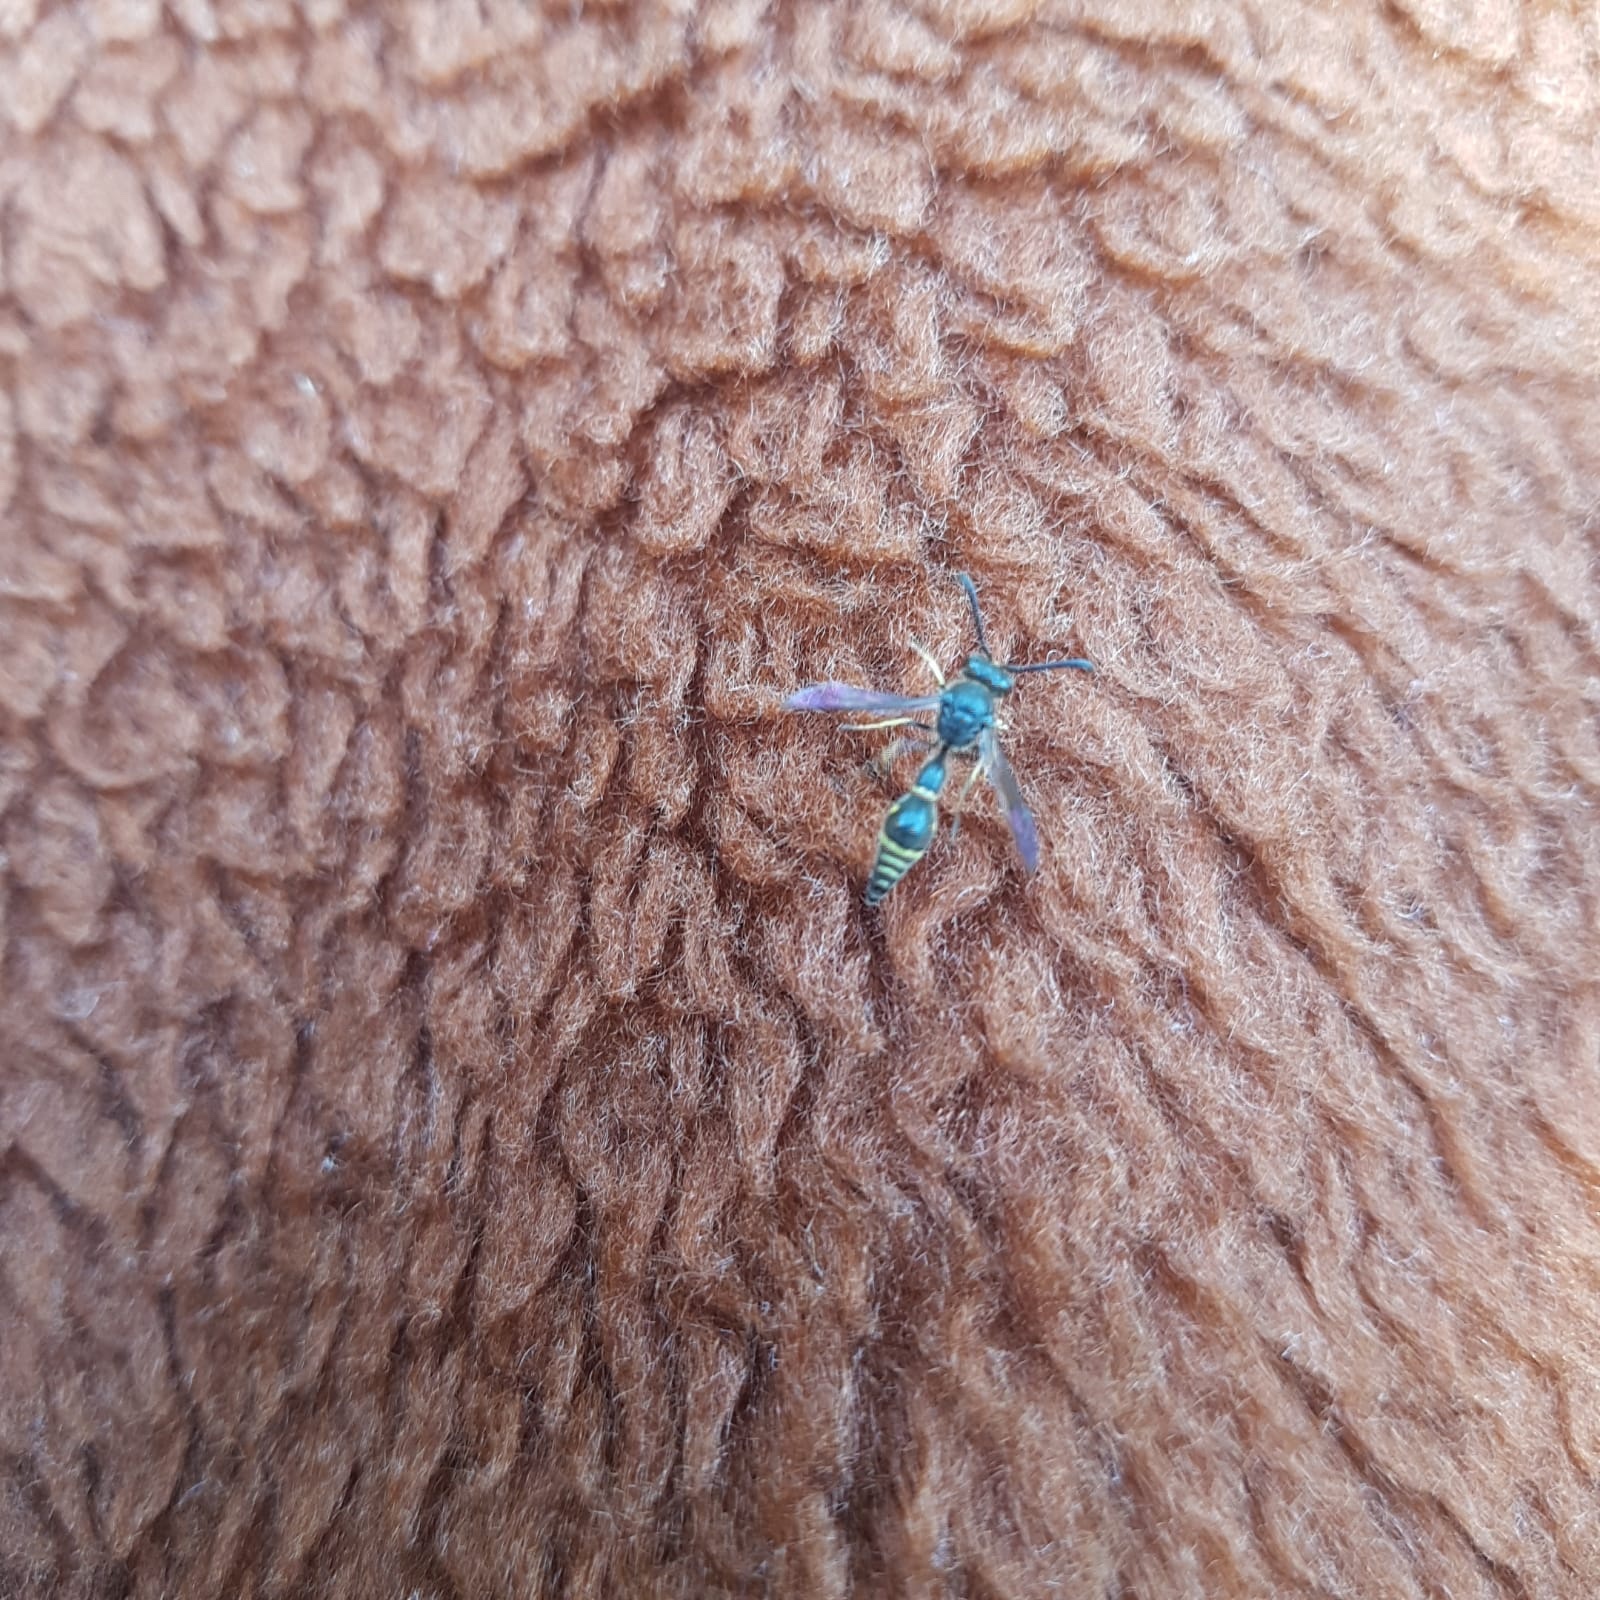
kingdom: Animalia
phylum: Arthropoda
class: Insecta
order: Hymenoptera
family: Vespidae
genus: Eumenes
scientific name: Eumenes
